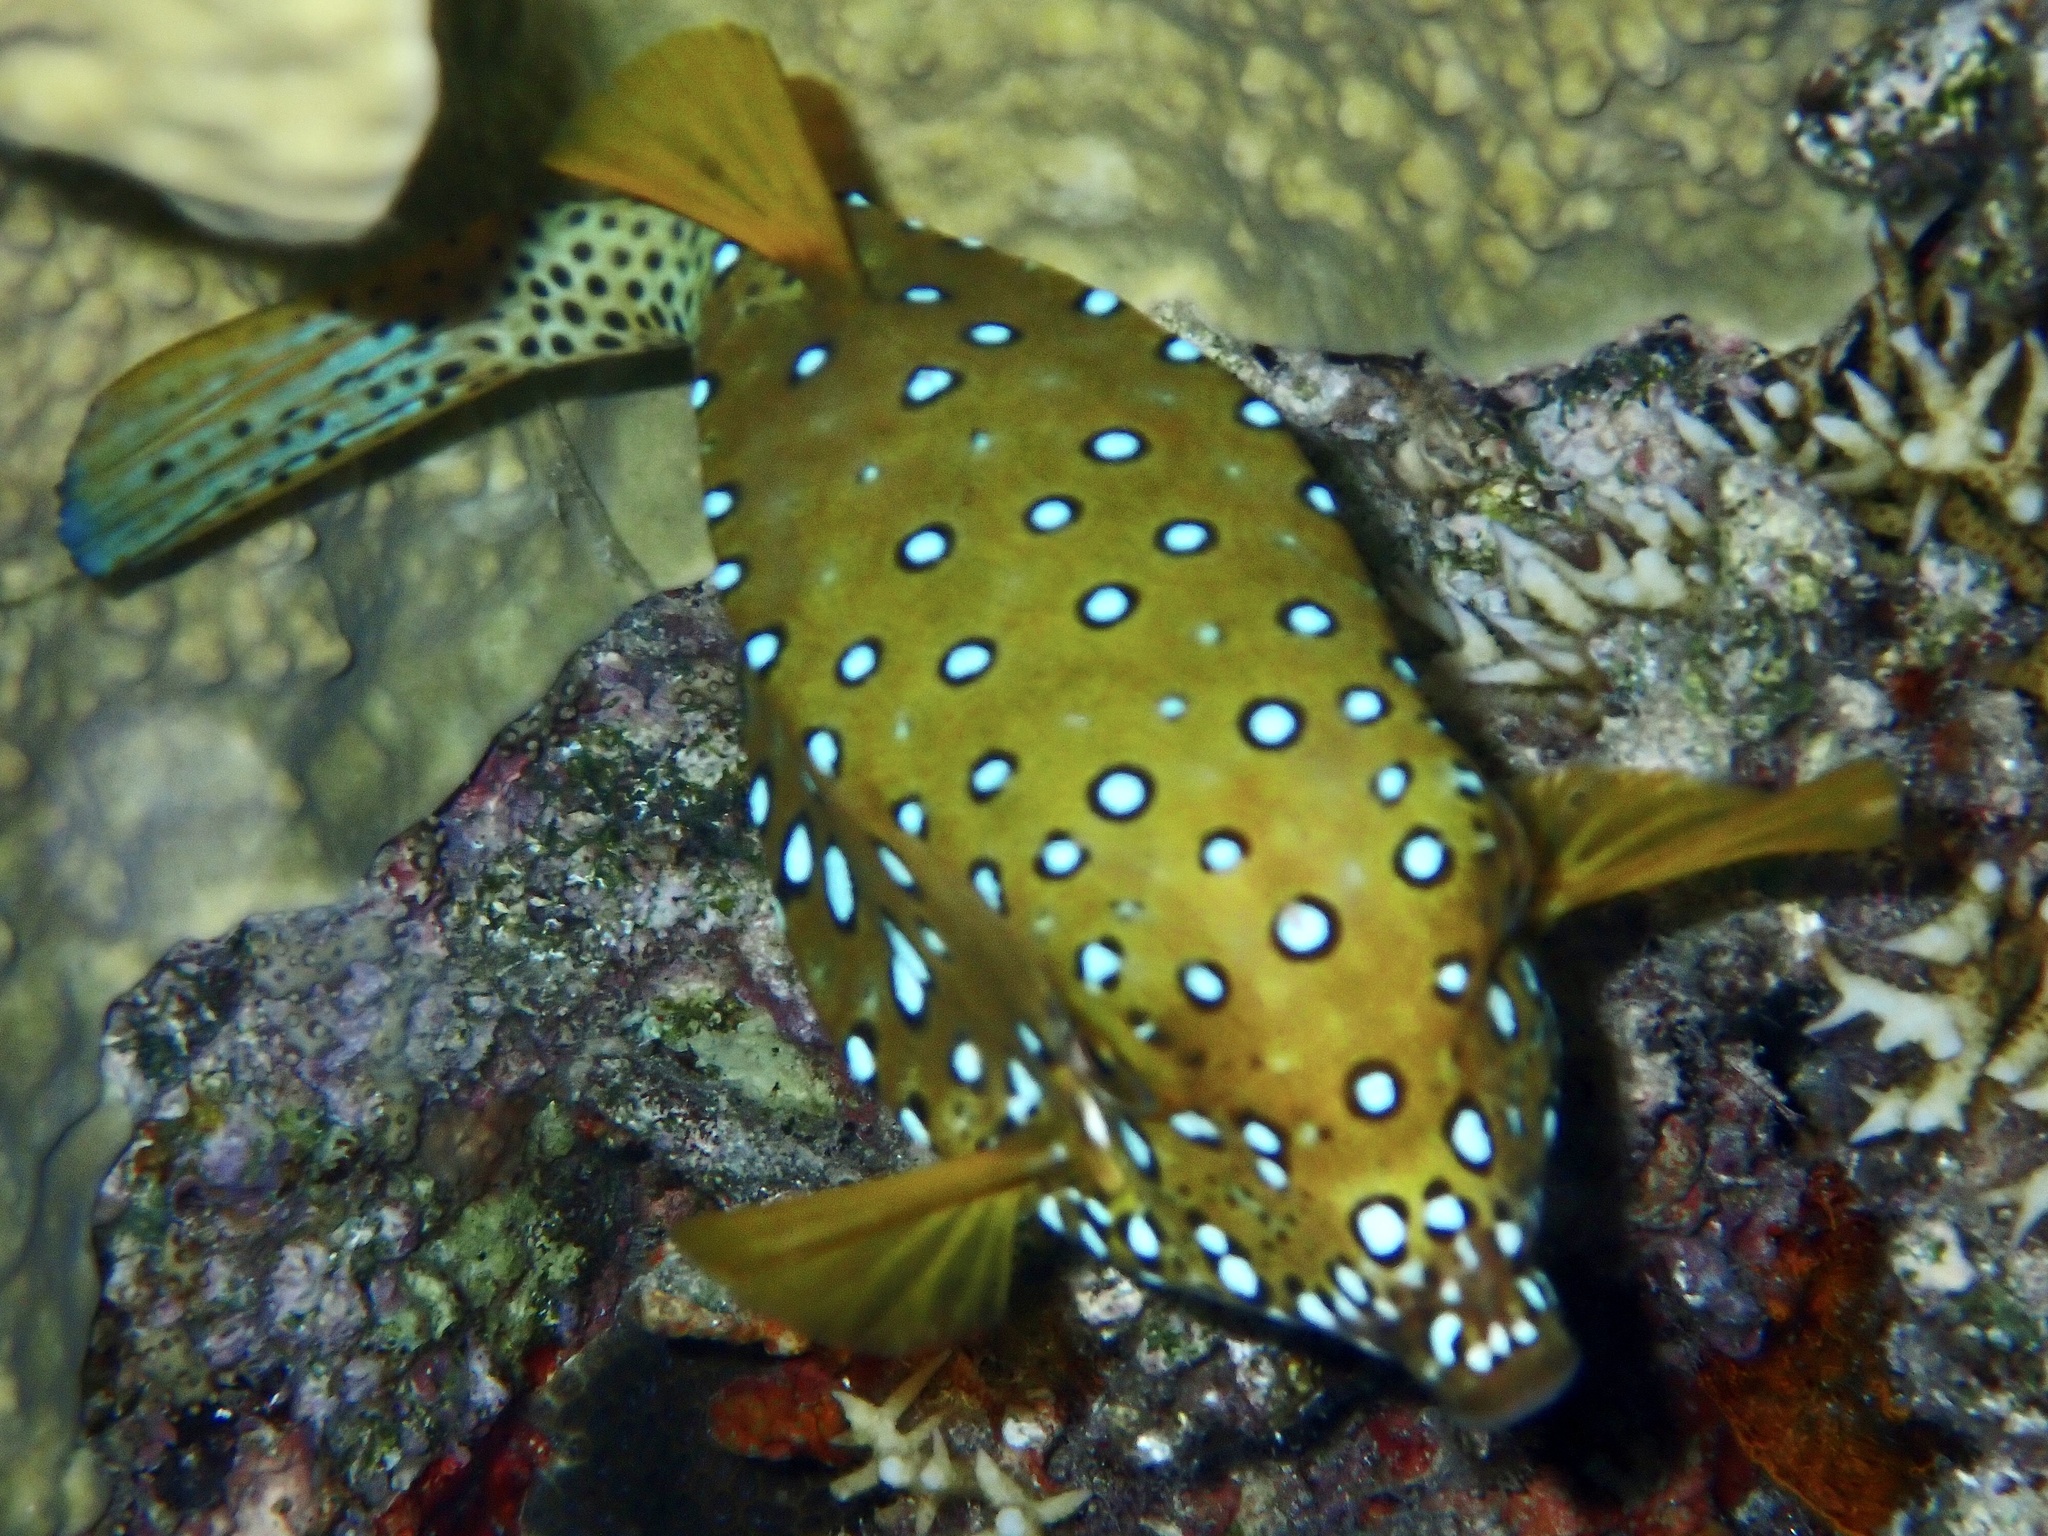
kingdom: Animalia
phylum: Chordata
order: Tetraodontiformes
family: Ostraciidae
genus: Ostracion
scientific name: Ostracion cubicus
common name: Cube trunkfish
